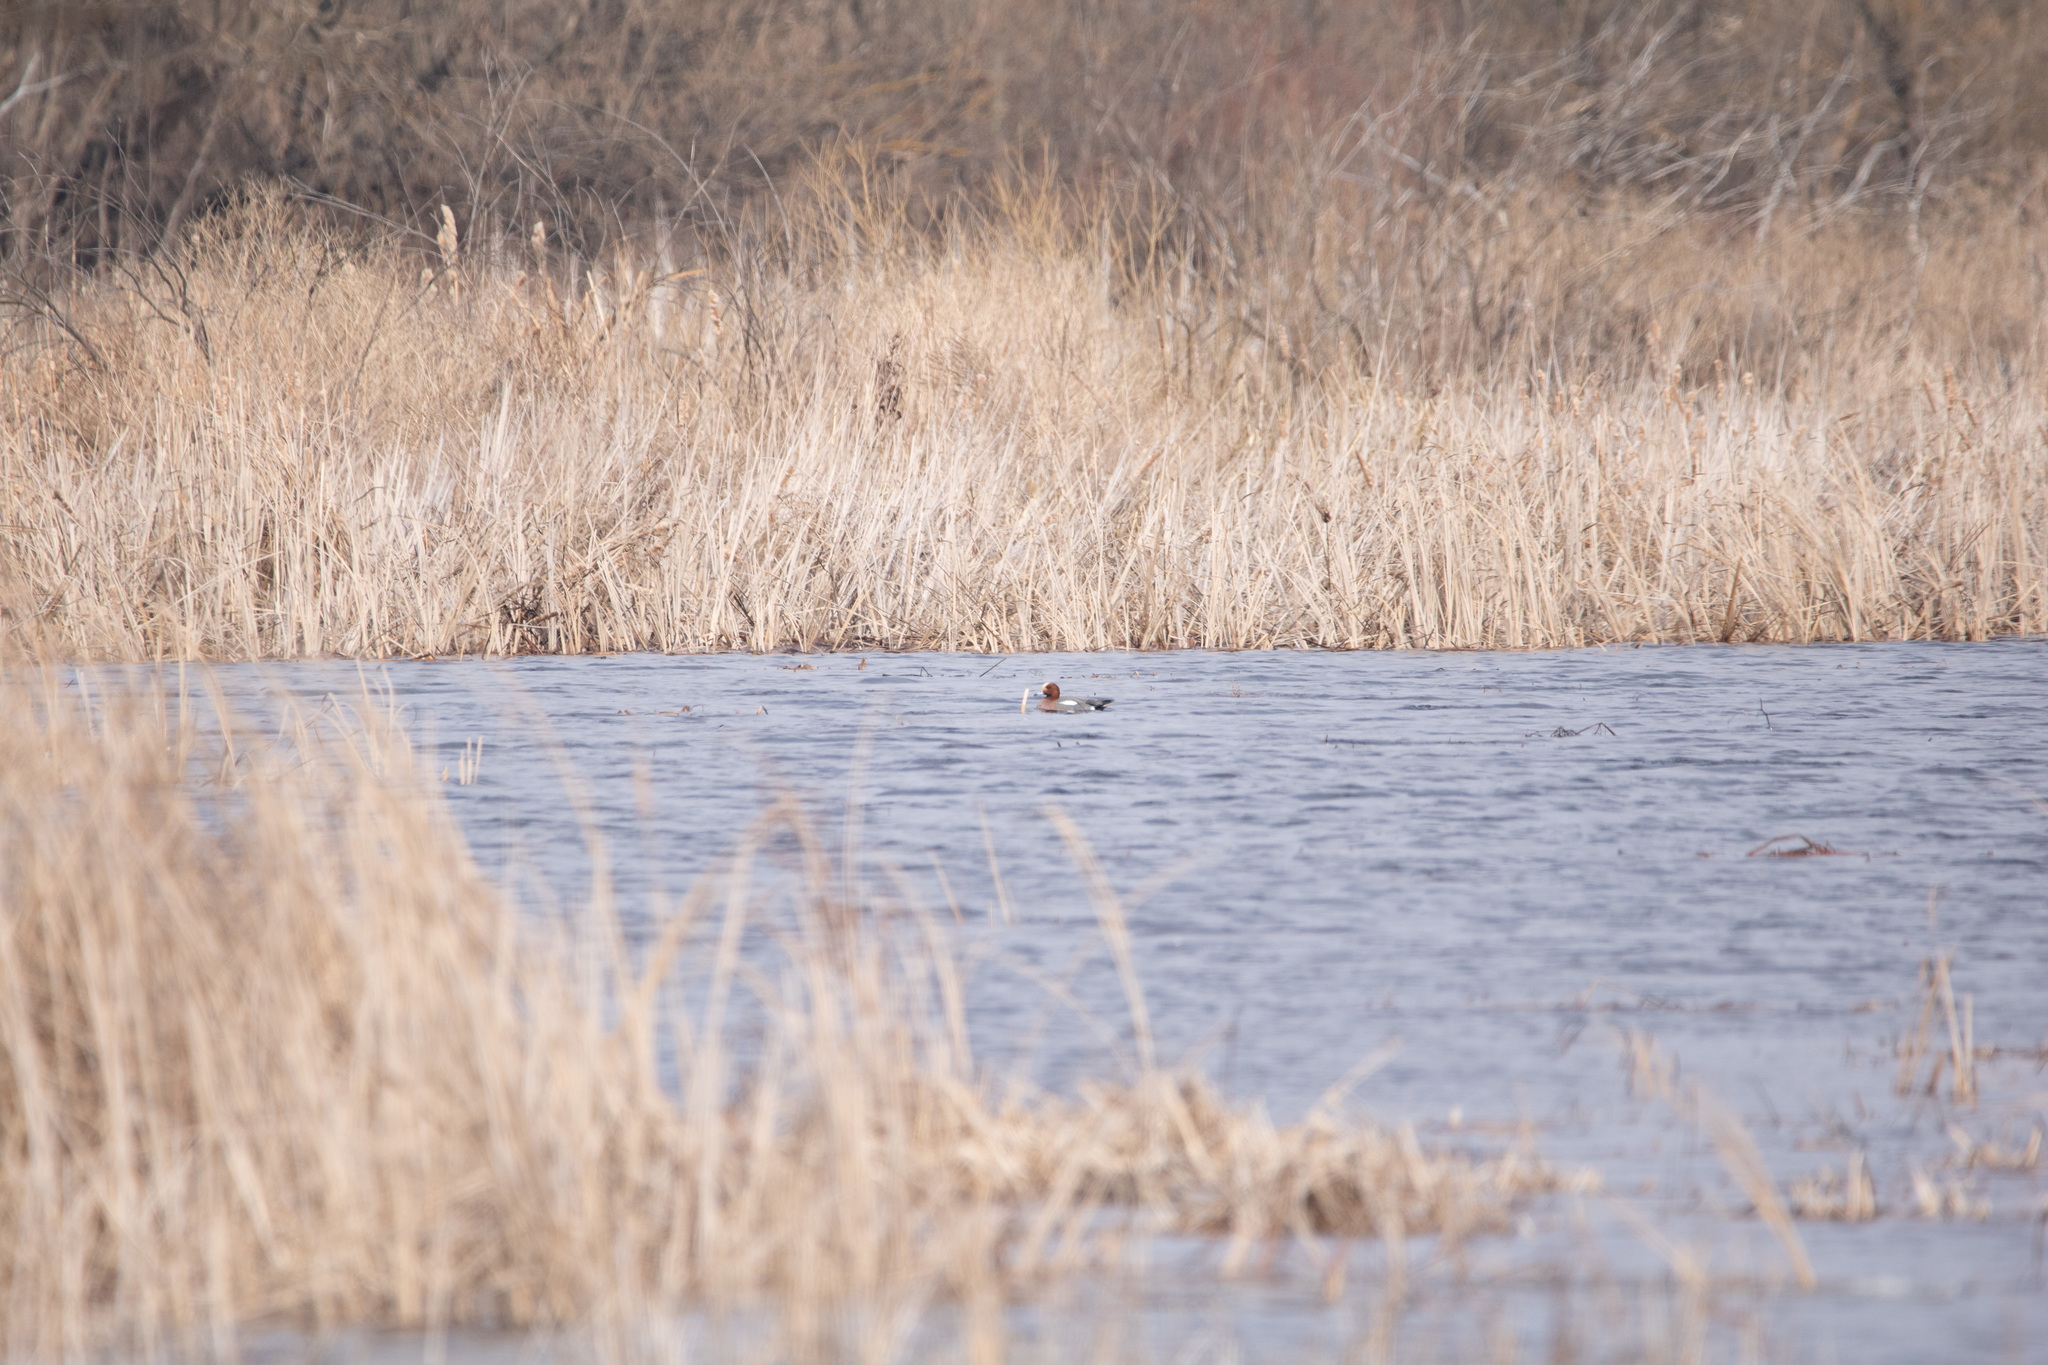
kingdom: Animalia
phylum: Chordata
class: Aves
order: Anseriformes
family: Anatidae
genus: Mareca
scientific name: Mareca penelope
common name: Eurasian wigeon
